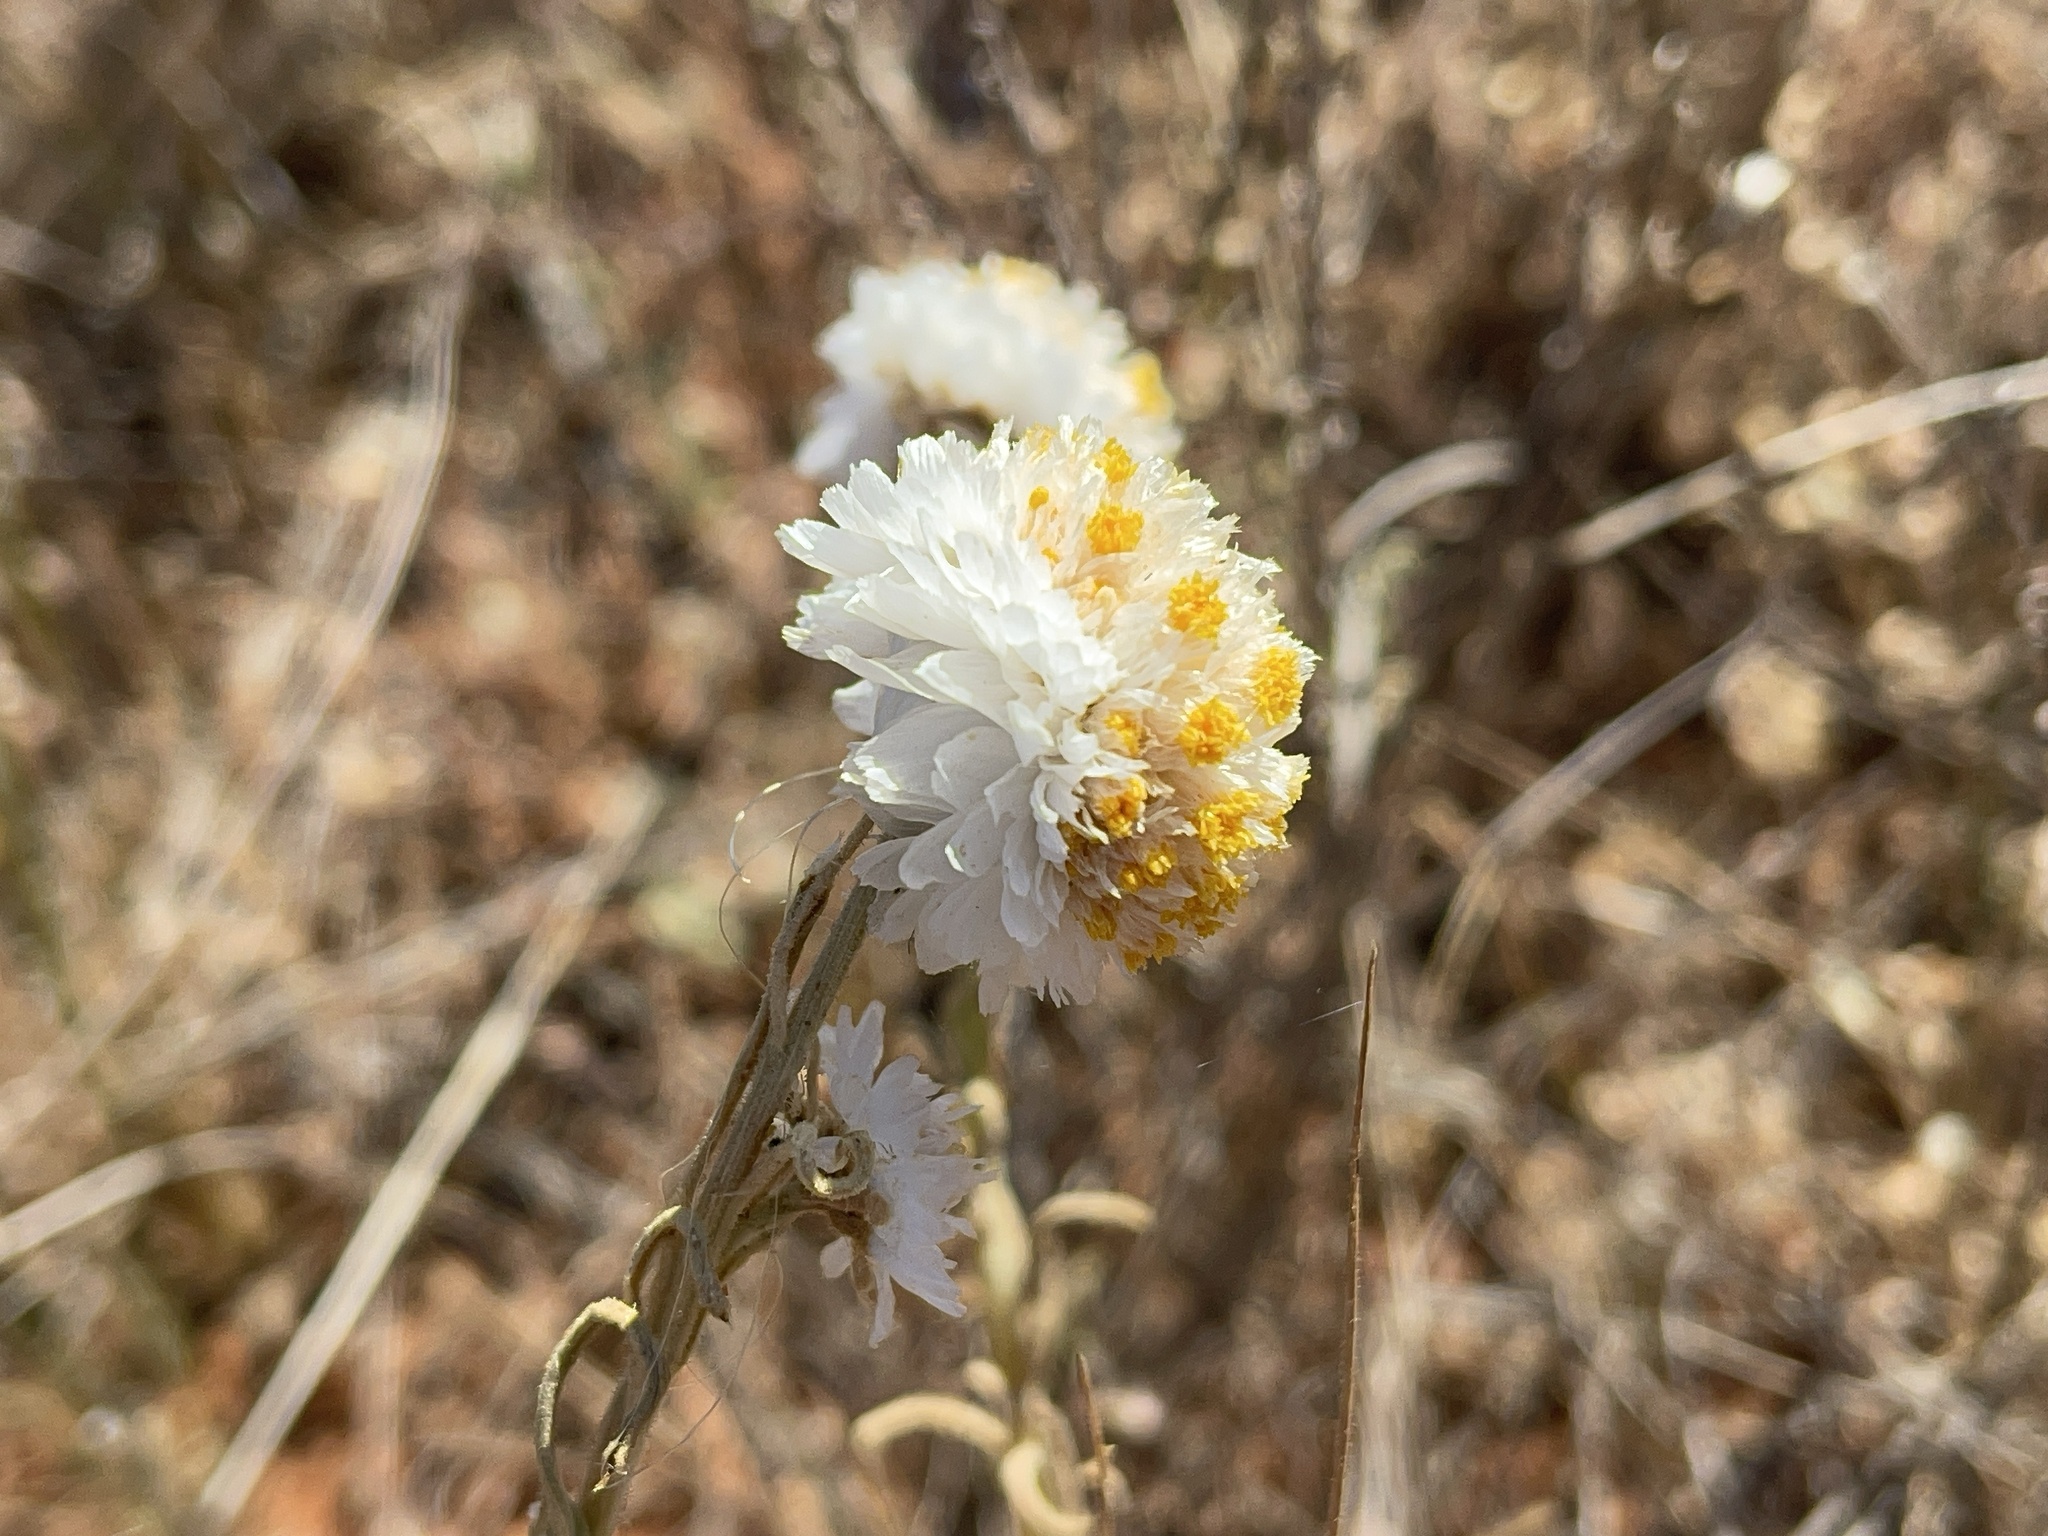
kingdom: Plantae
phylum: Tracheophyta
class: Magnoliopsida
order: Asterales
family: Asteraceae
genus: Polycalymma
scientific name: Polycalymma stuartii
